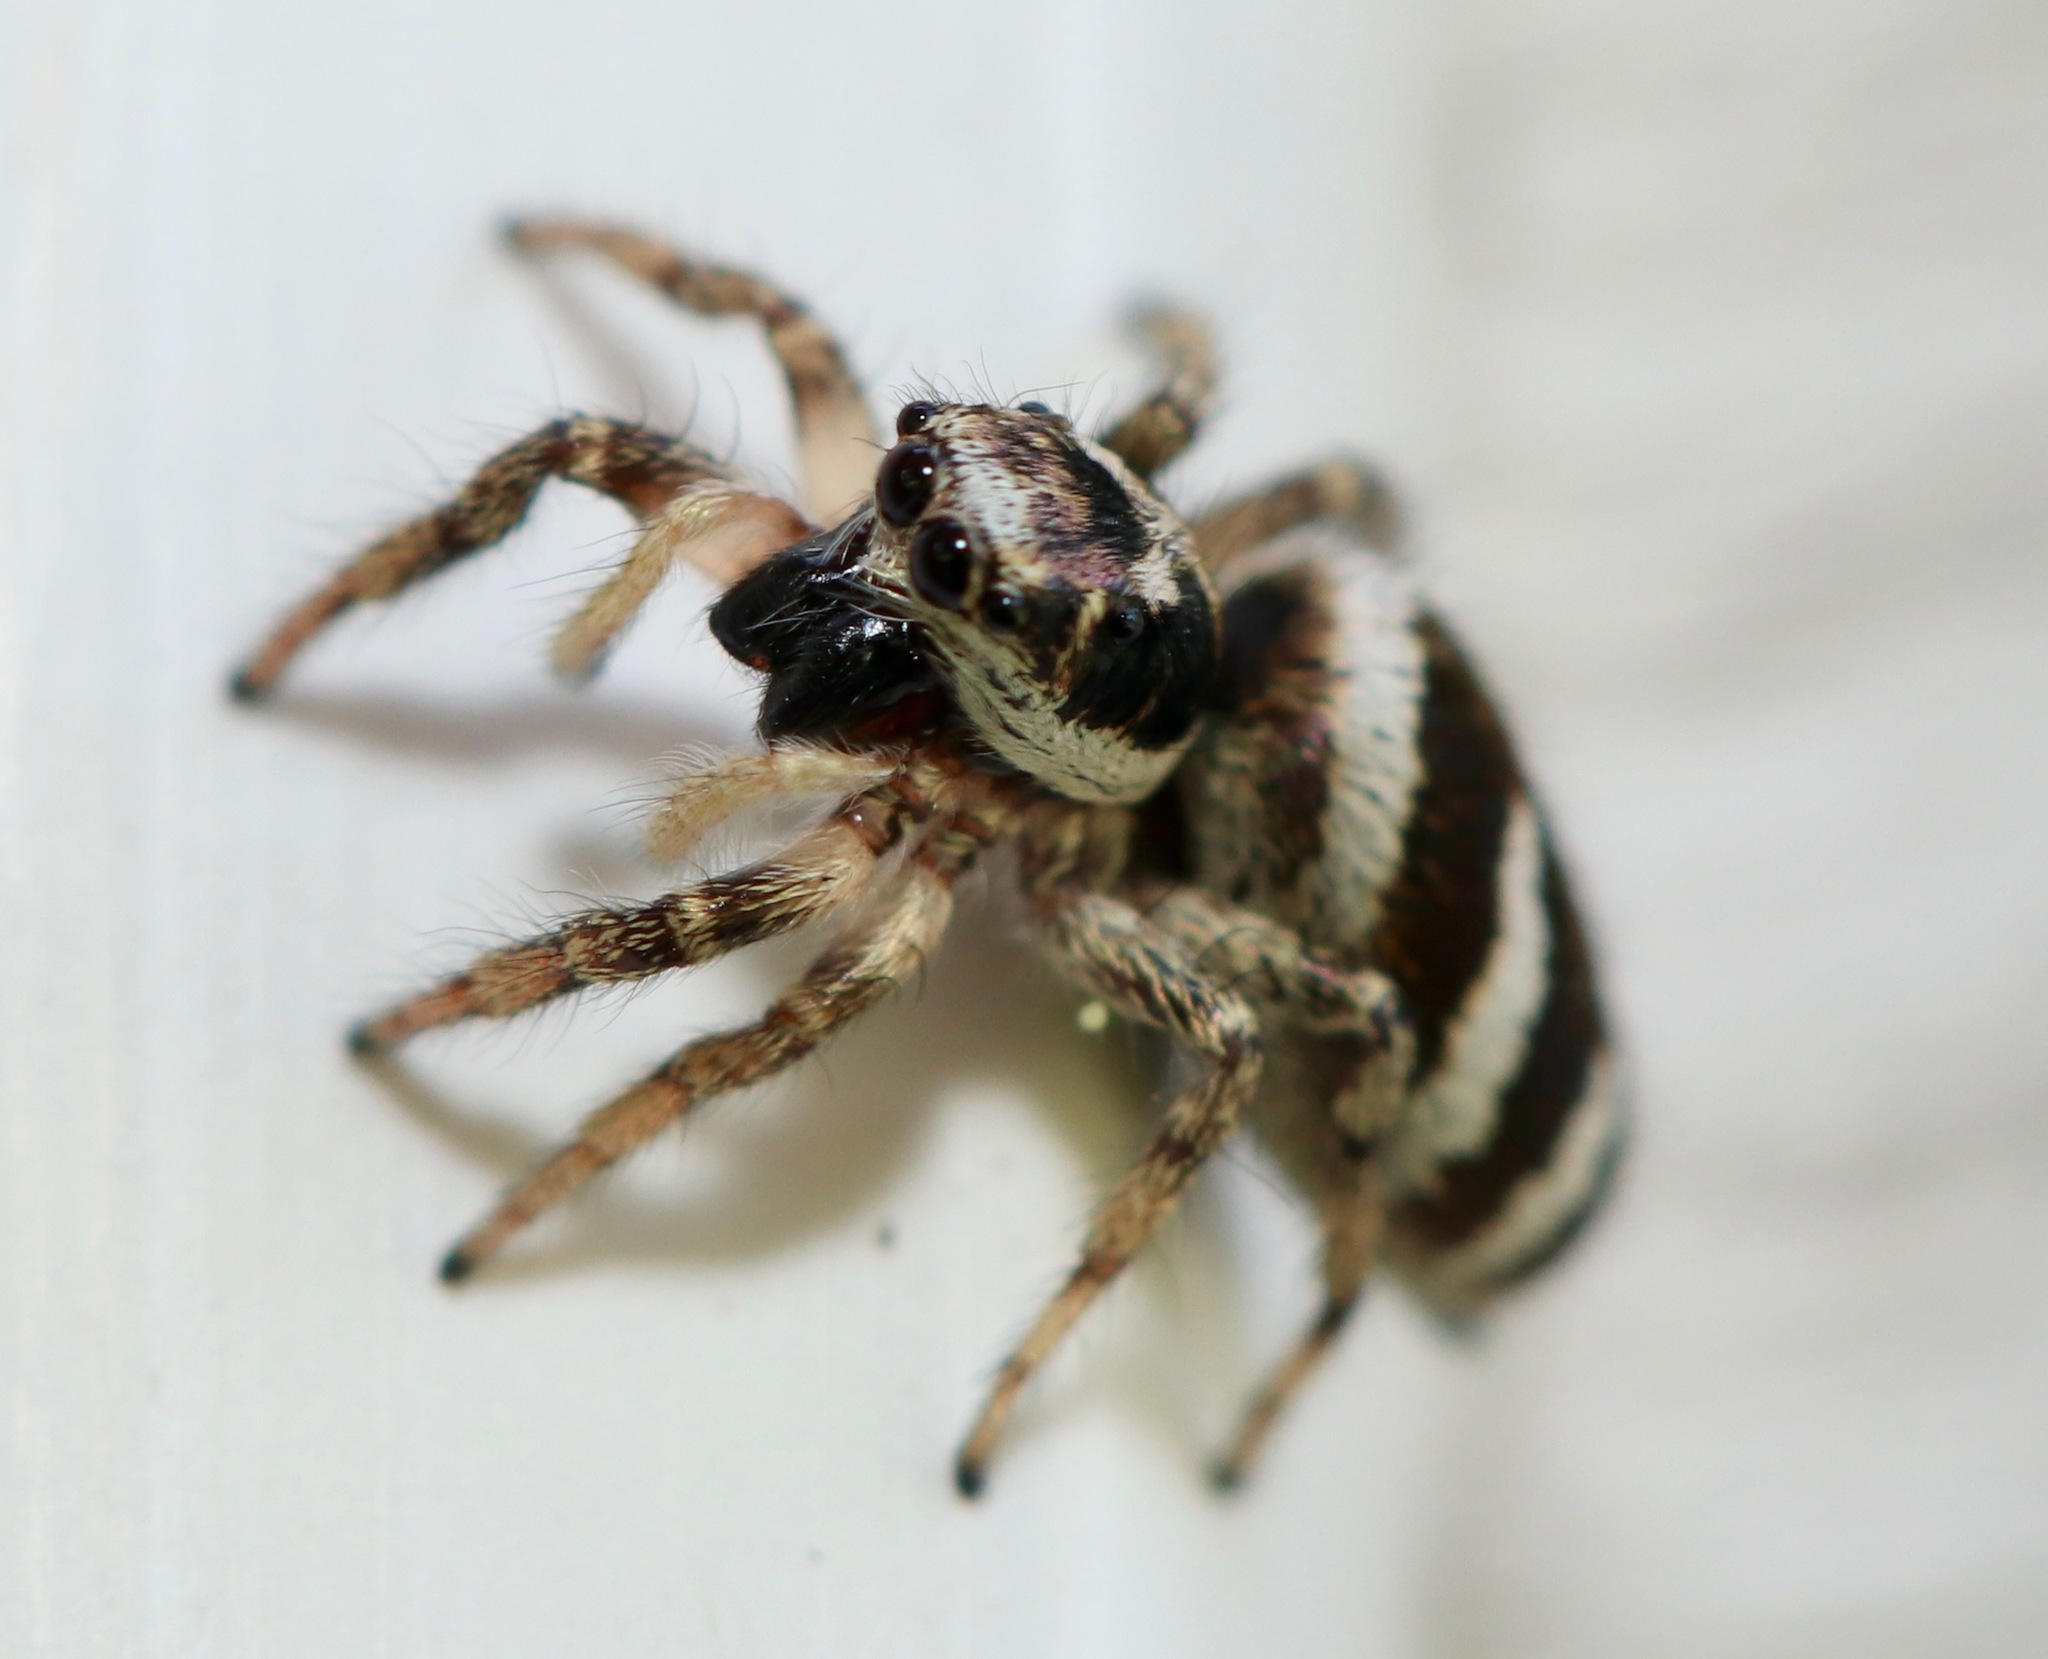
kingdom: Animalia
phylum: Arthropoda
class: Arachnida
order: Araneae
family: Salticidae
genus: Salticus
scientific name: Salticus scenicus
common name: Zebra jumper
